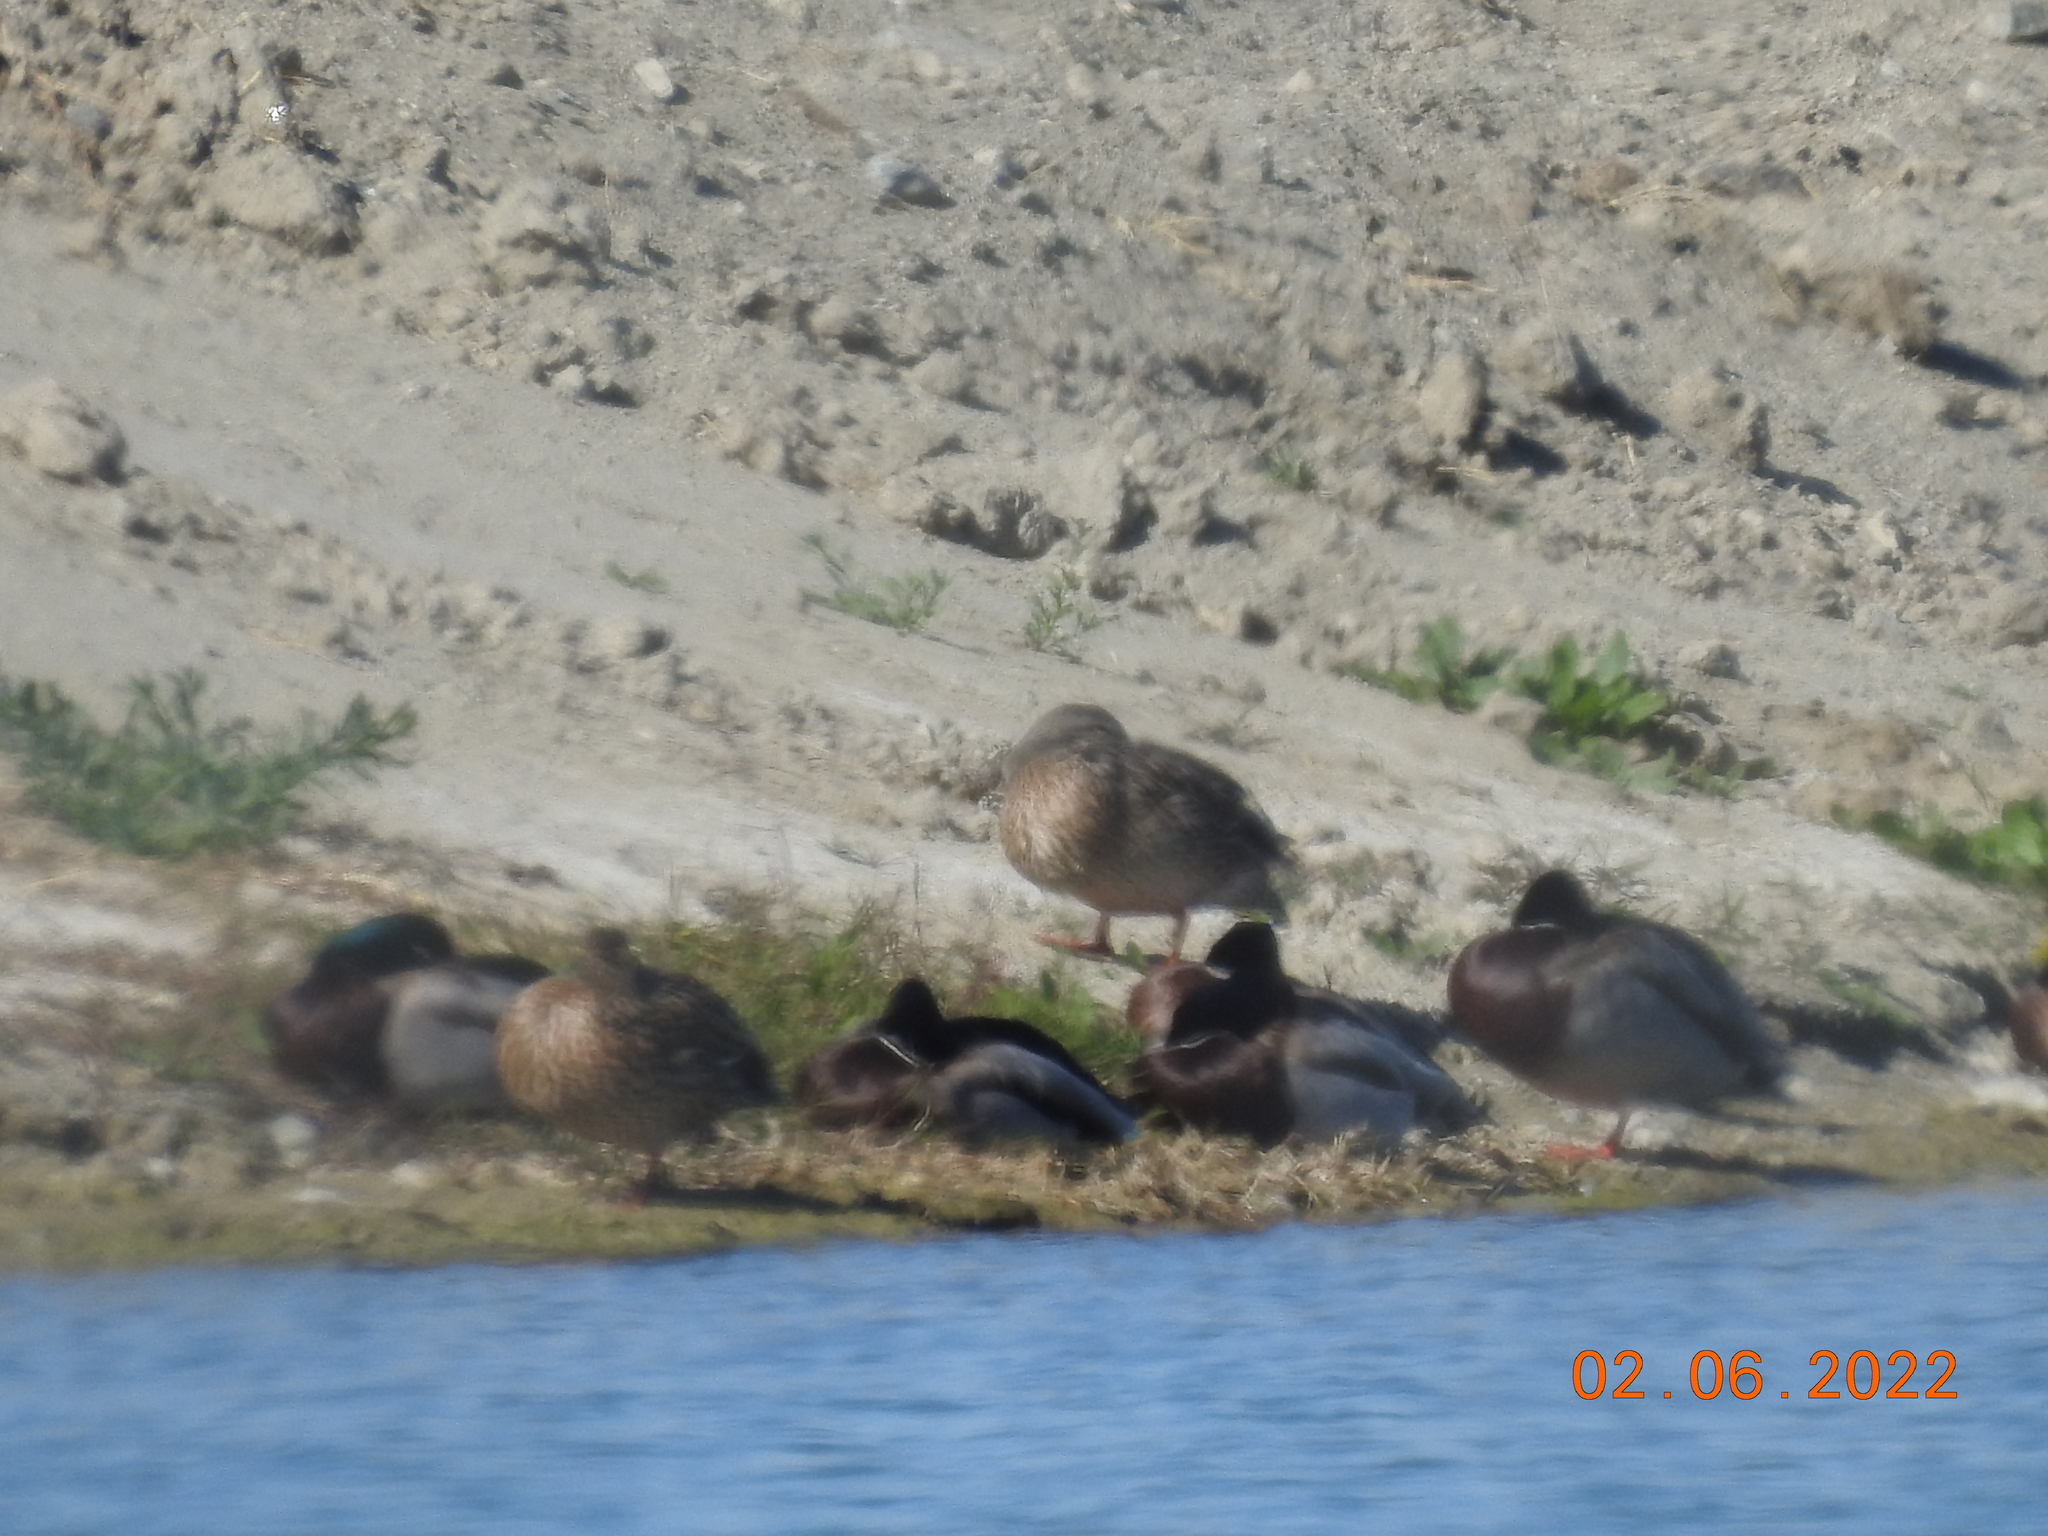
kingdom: Animalia
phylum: Chordata
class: Aves
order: Anseriformes
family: Anatidae
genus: Anas
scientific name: Anas platyrhynchos
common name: Mallard
